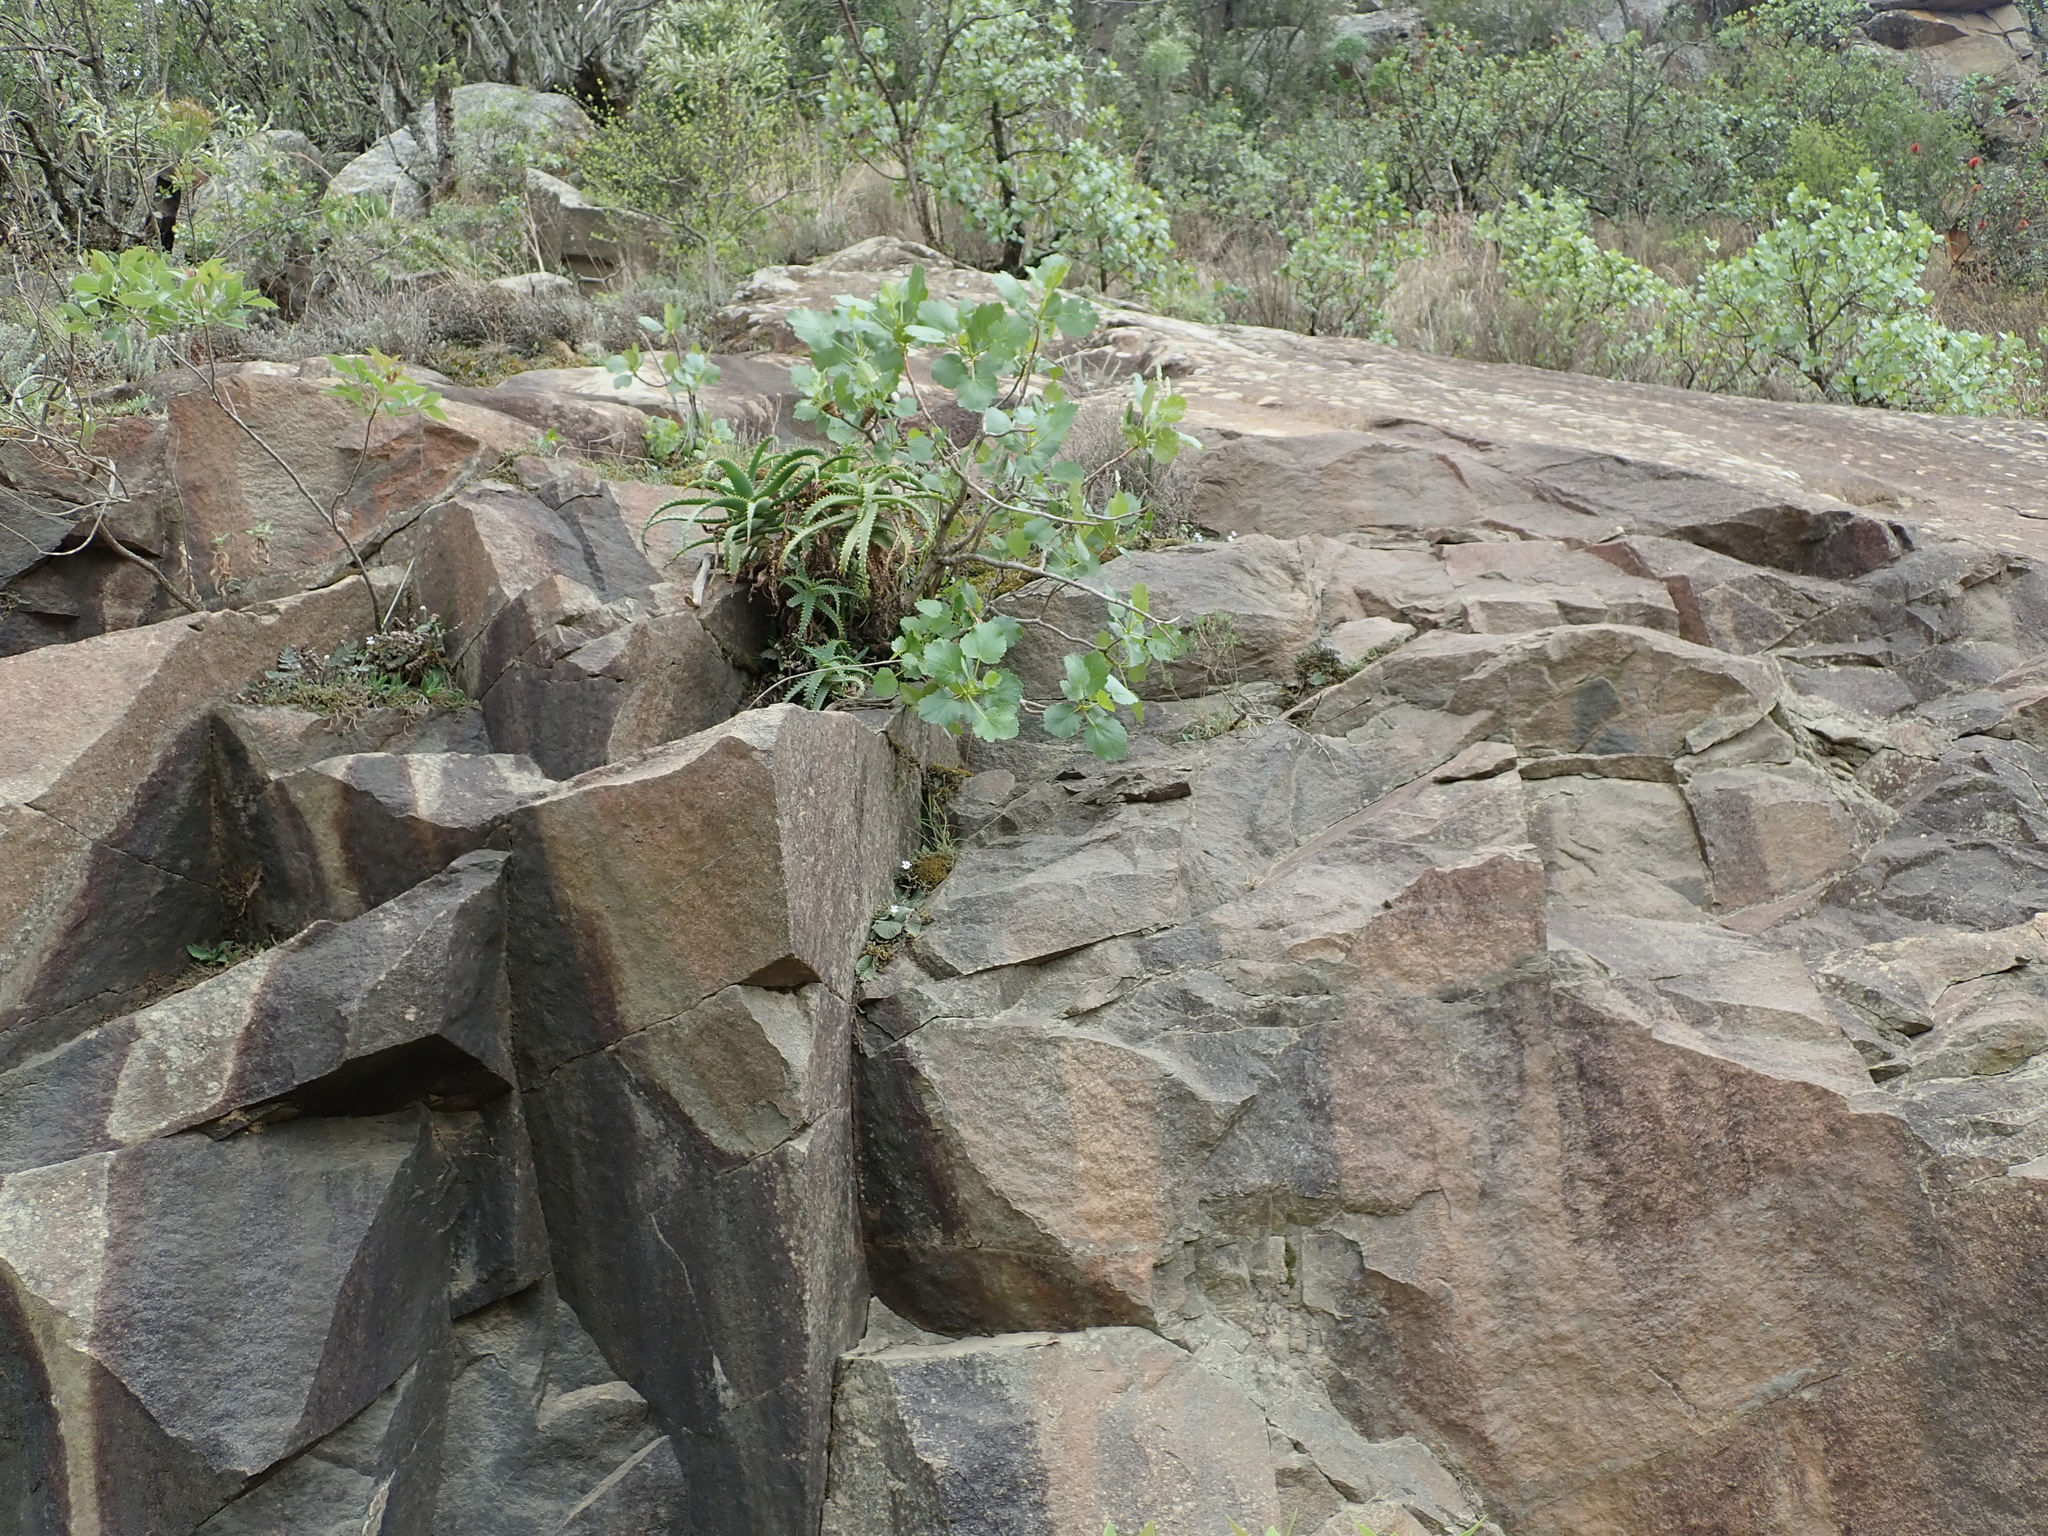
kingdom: Plantae
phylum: Tracheophyta
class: Liliopsida
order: Asparagales
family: Asphodelaceae
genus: Aloe
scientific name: Aloe arborescens
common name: Candelabra aloe
